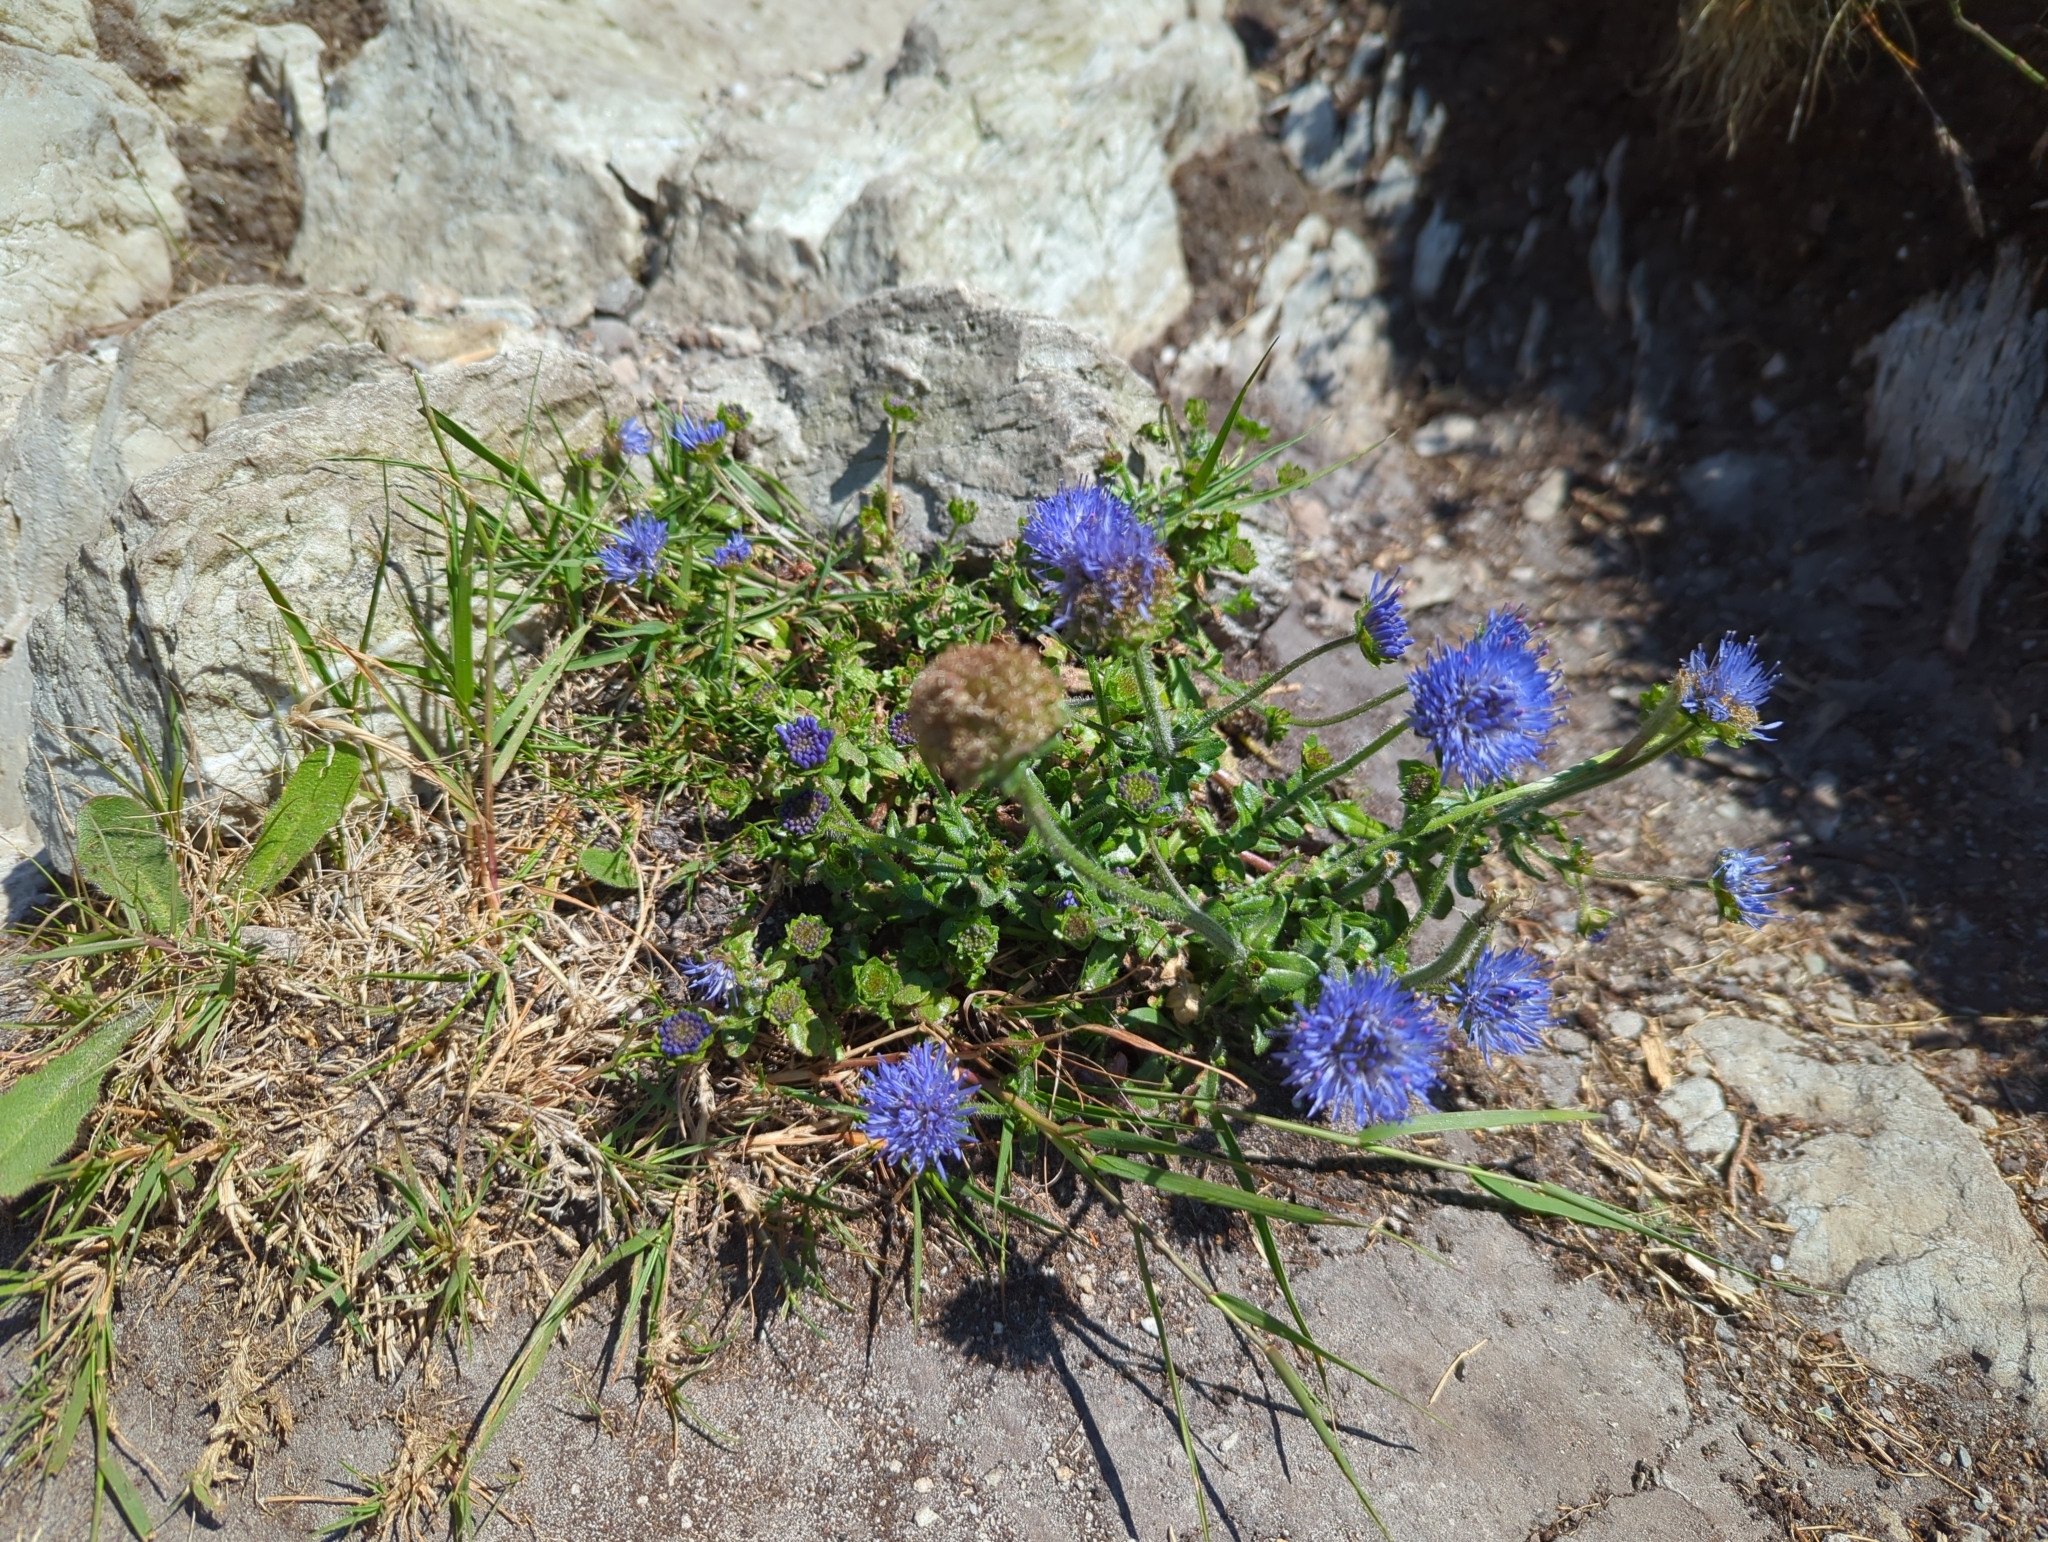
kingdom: Plantae
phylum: Tracheophyta
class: Magnoliopsida
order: Asterales
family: Campanulaceae
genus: Jasione
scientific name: Jasione montana
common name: Sheep's-bit
